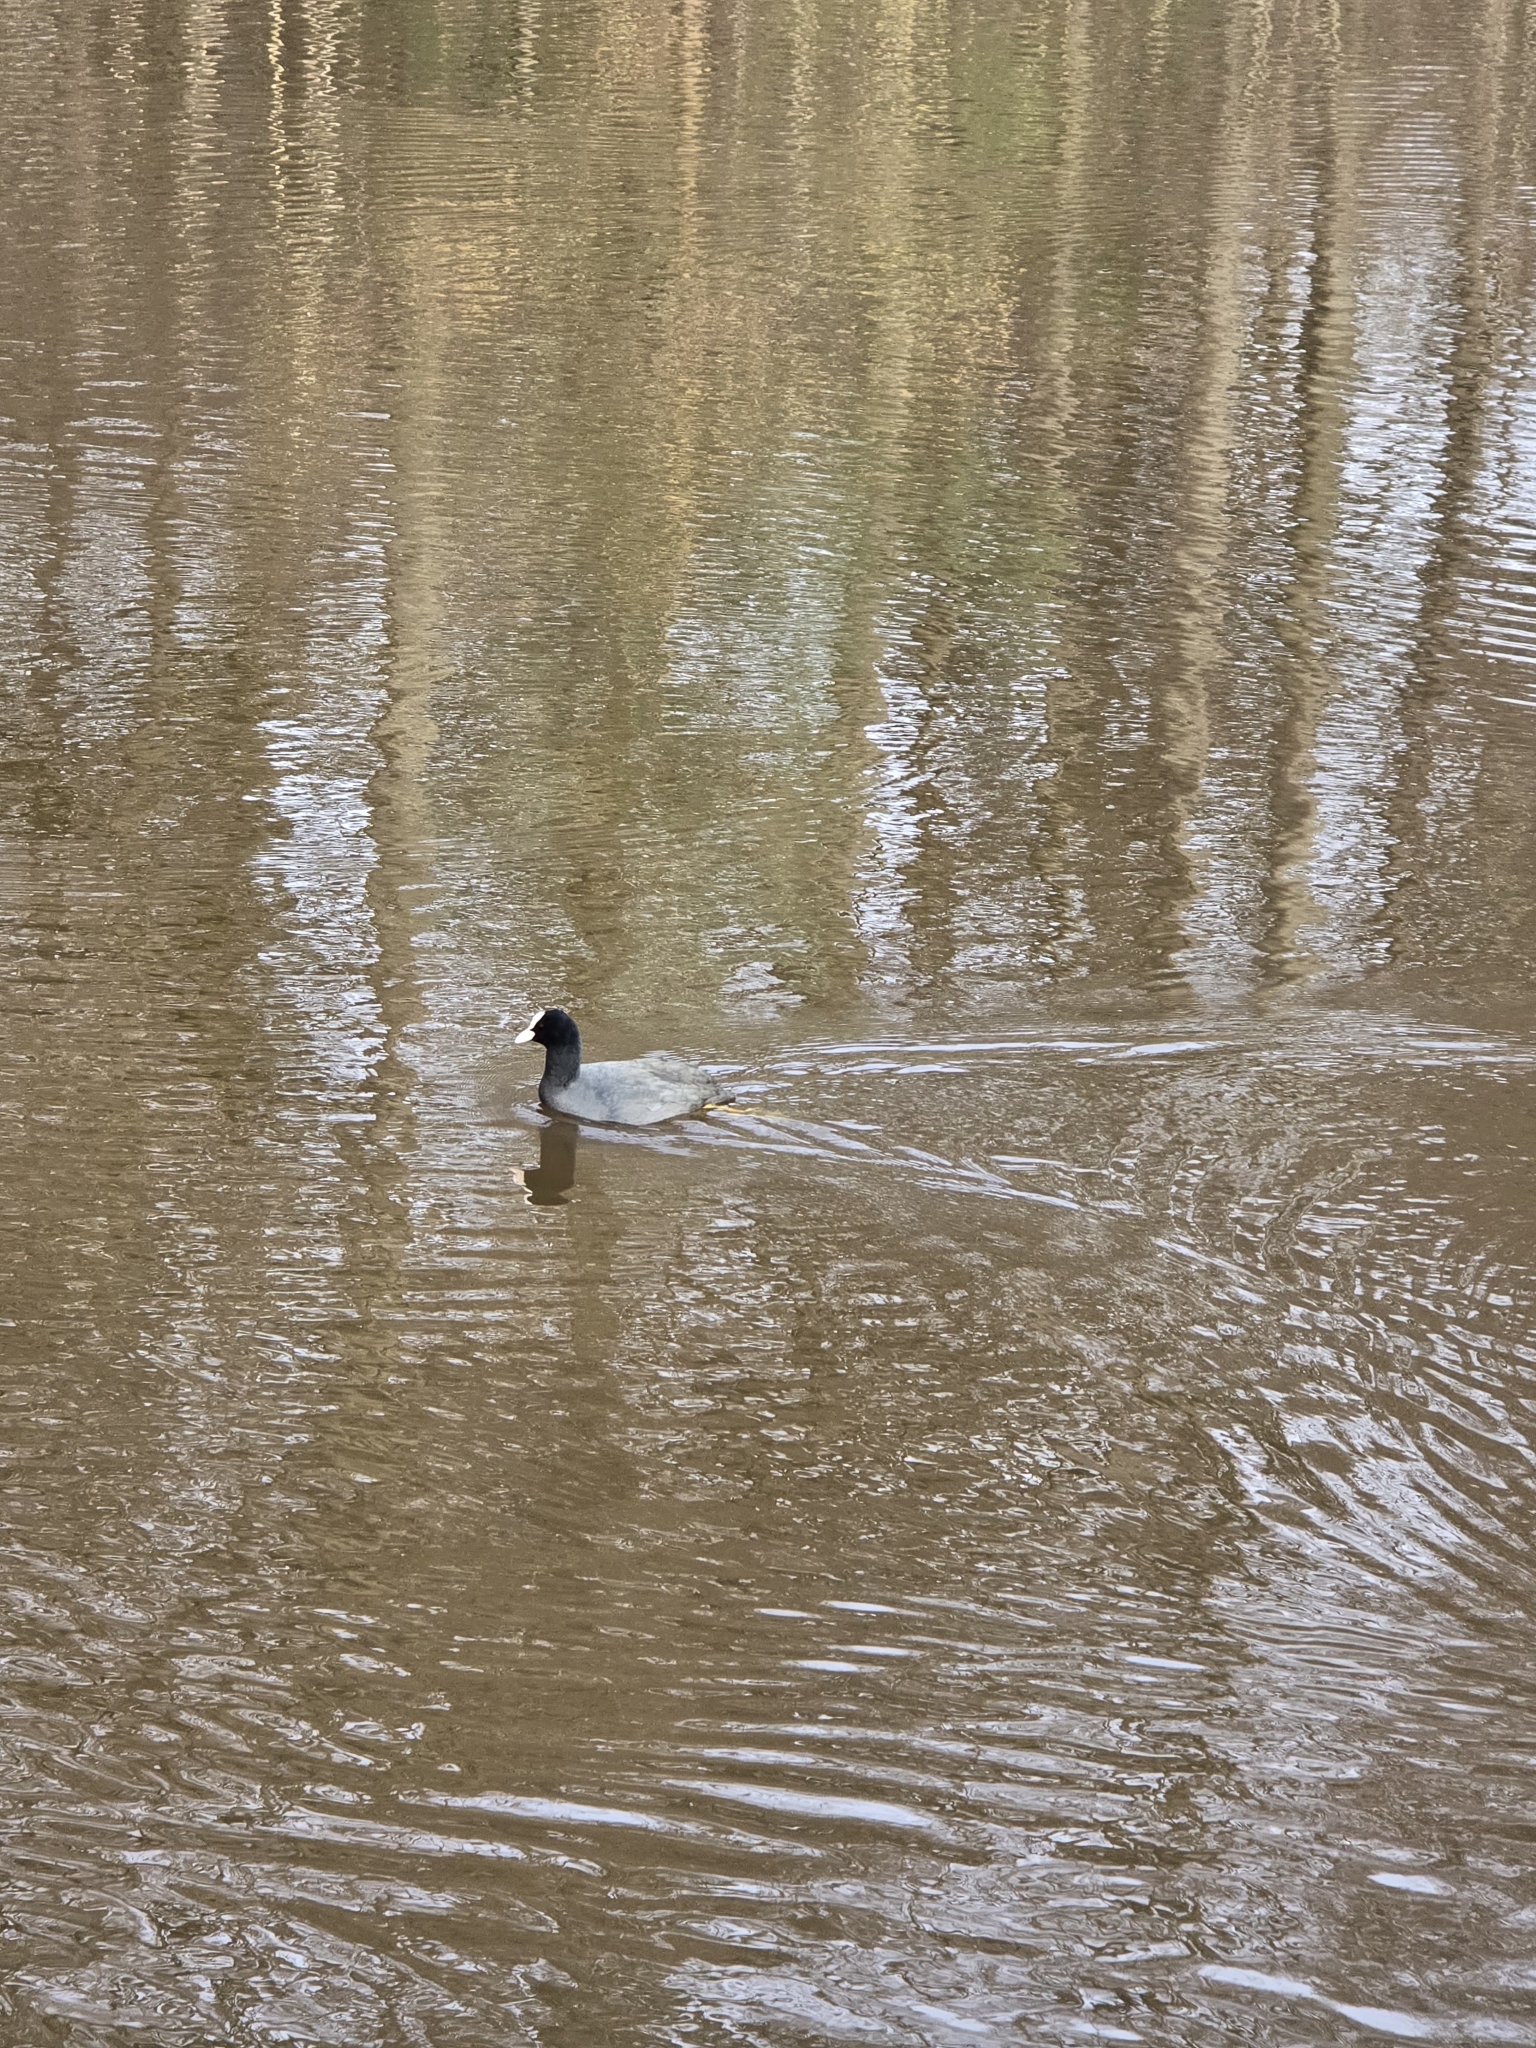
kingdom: Animalia
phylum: Chordata
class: Aves
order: Gruiformes
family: Rallidae
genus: Fulica
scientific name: Fulica atra
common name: Eurasian coot
